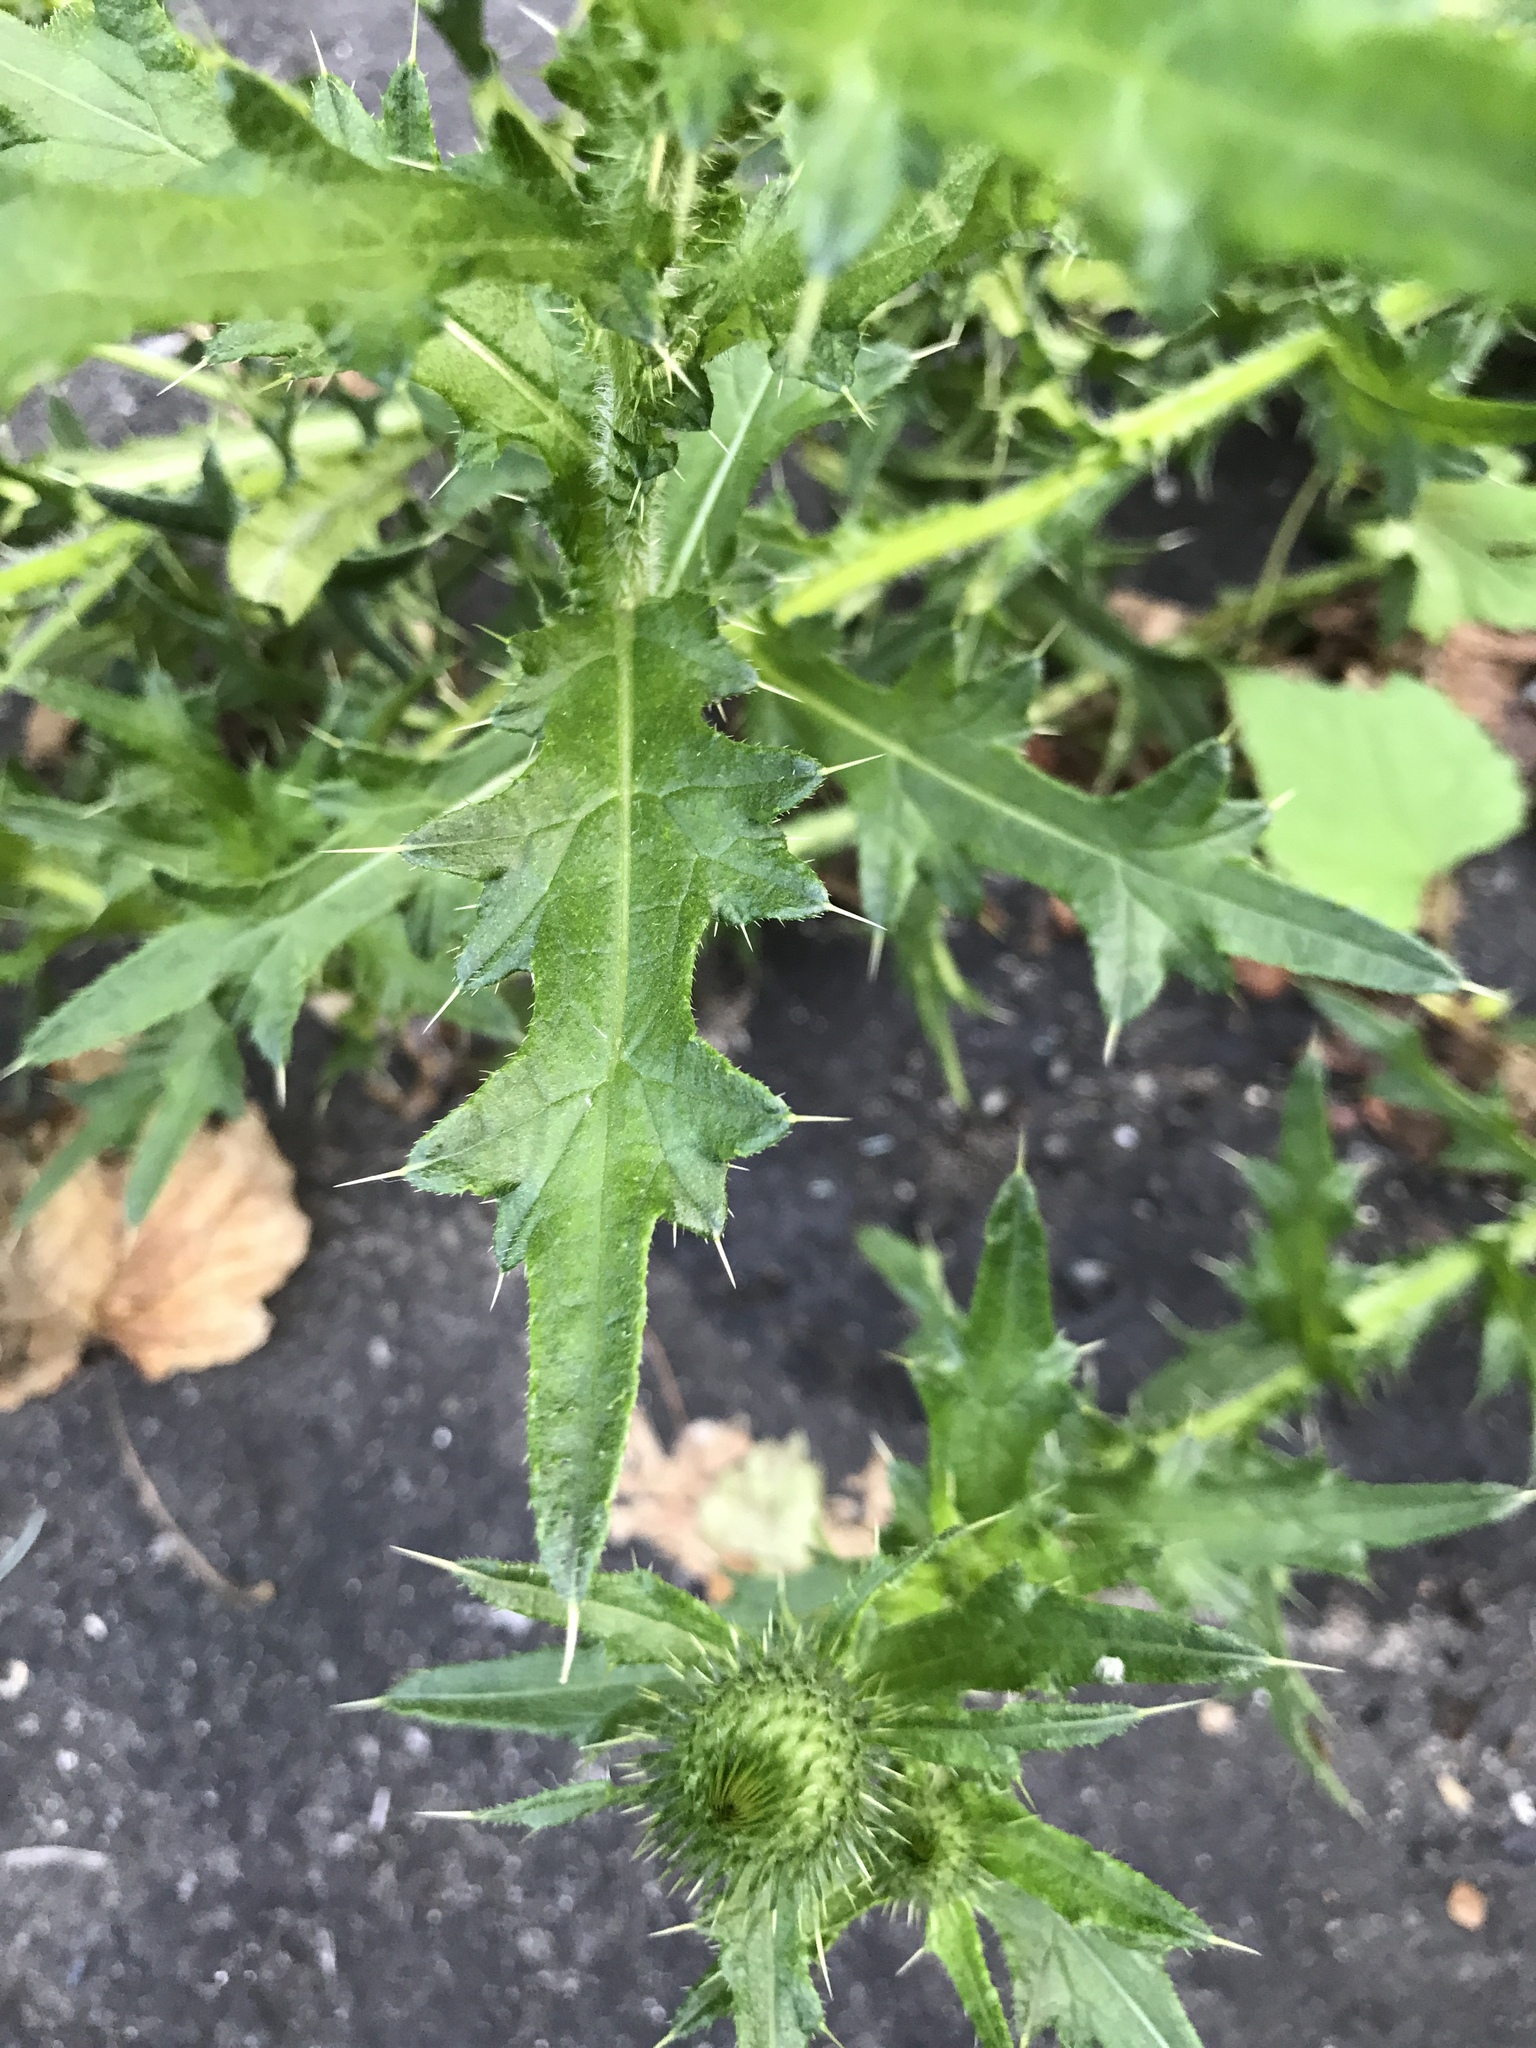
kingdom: Plantae
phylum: Tracheophyta
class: Magnoliopsida
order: Asterales
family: Asteraceae
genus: Cirsium
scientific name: Cirsium vulgare
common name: Bull thistle
